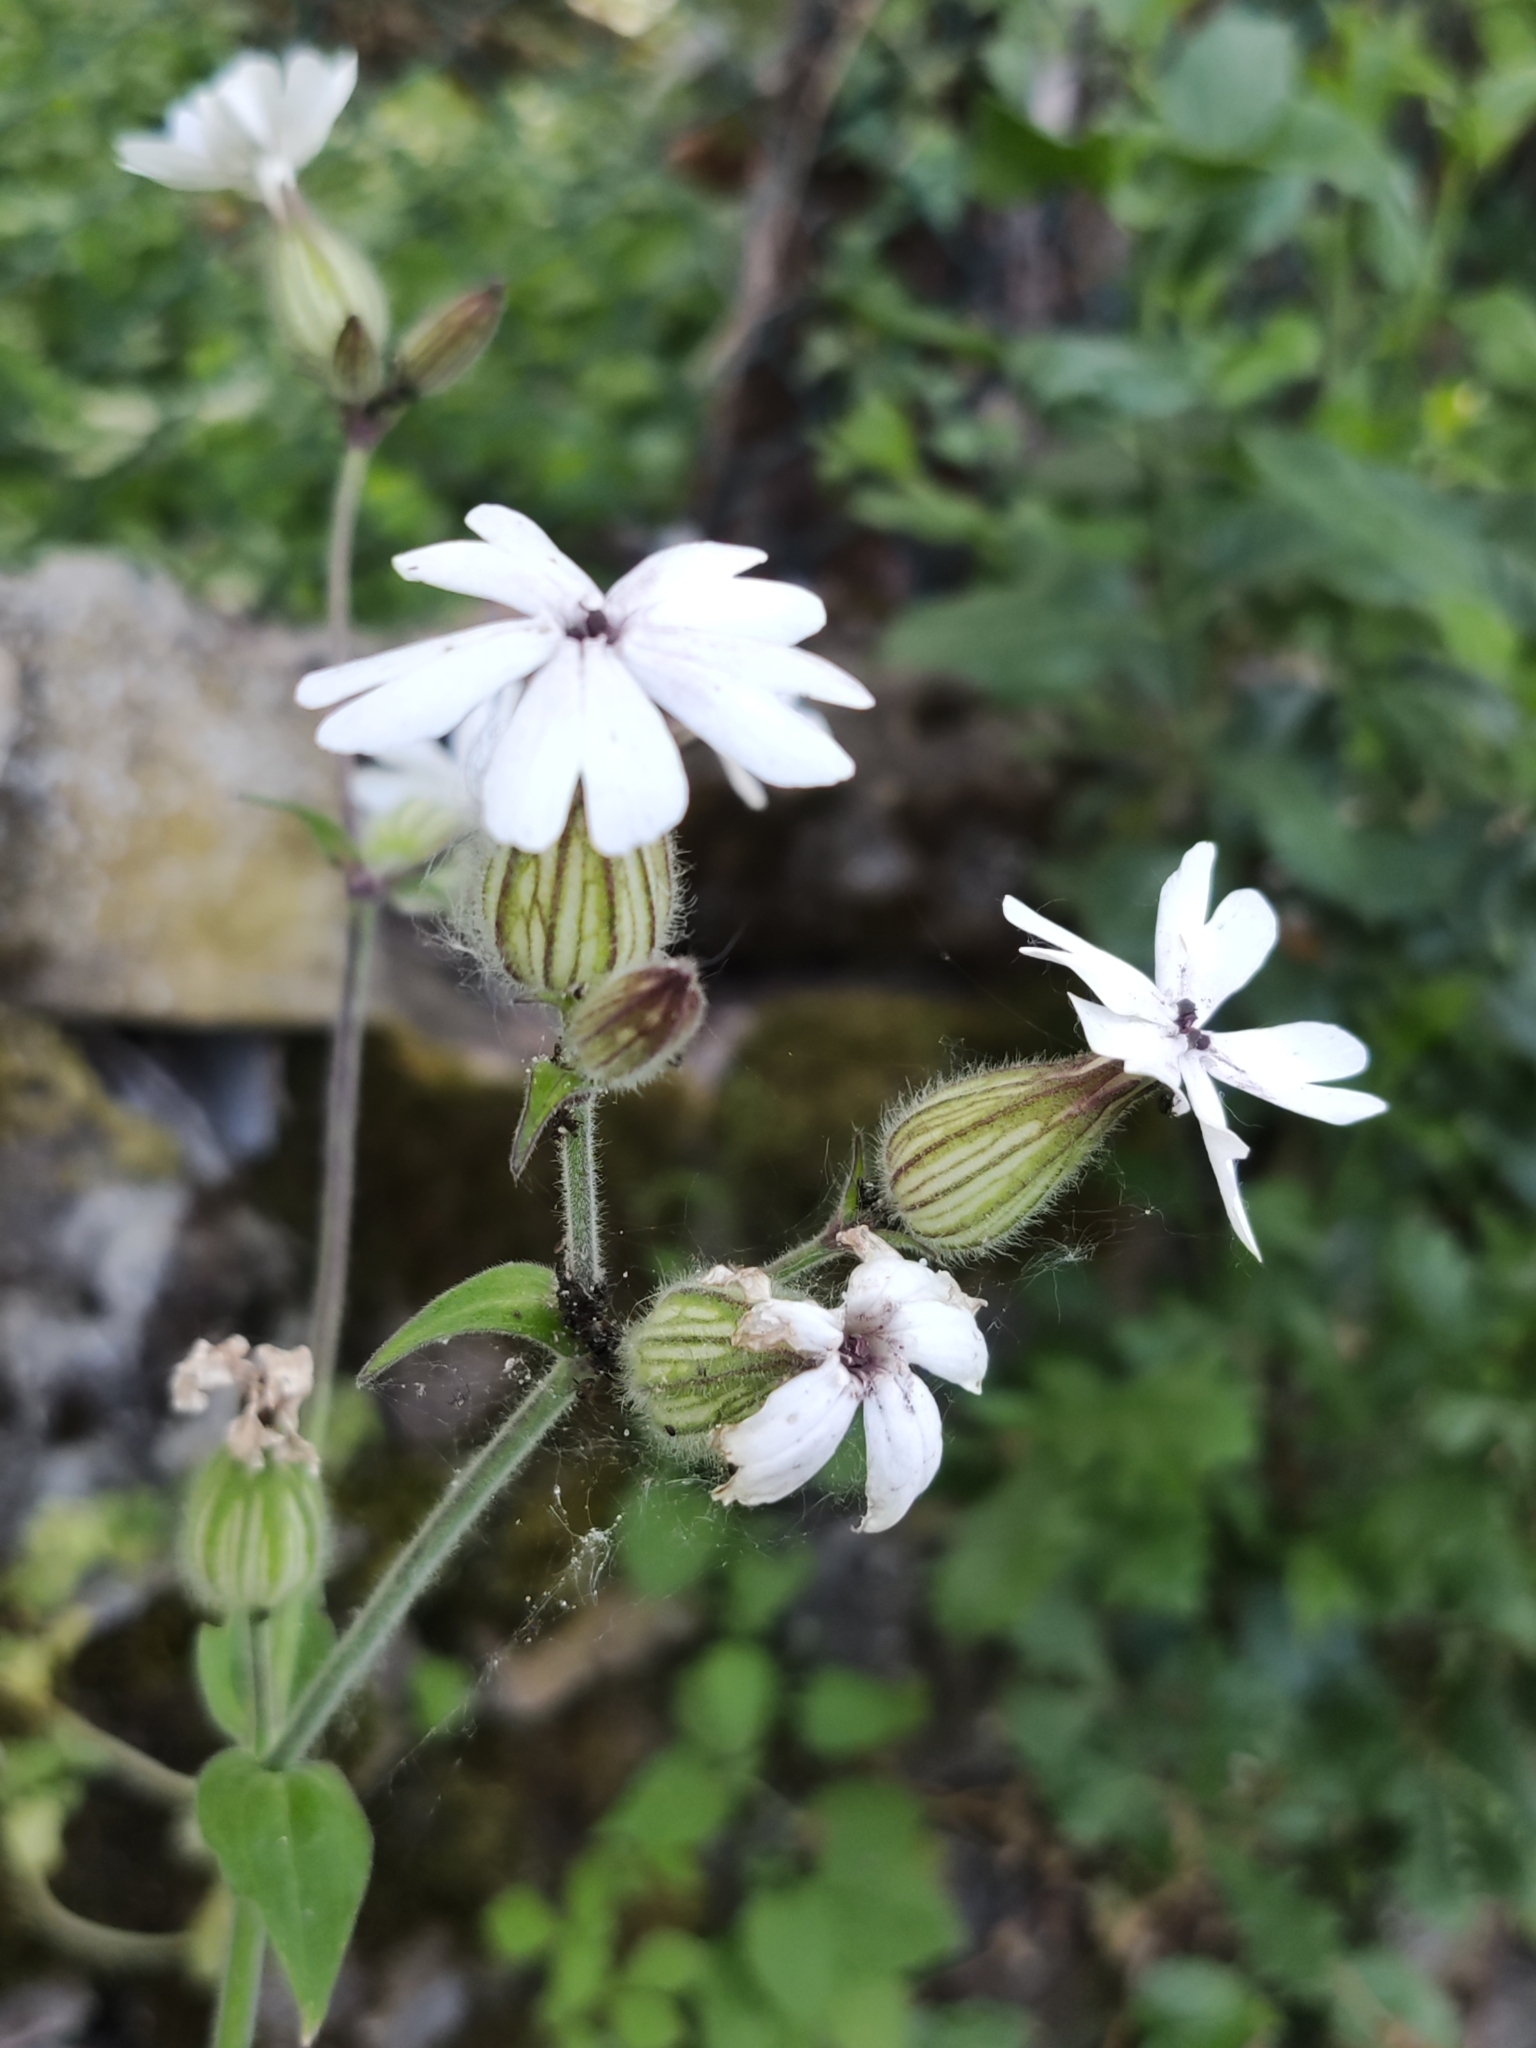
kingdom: Plantae
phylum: Tracheophyta
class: Magnoliopsida
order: Caryophyllales
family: Caryophyllaceae
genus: Silene
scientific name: Silene latifolia
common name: White campion
